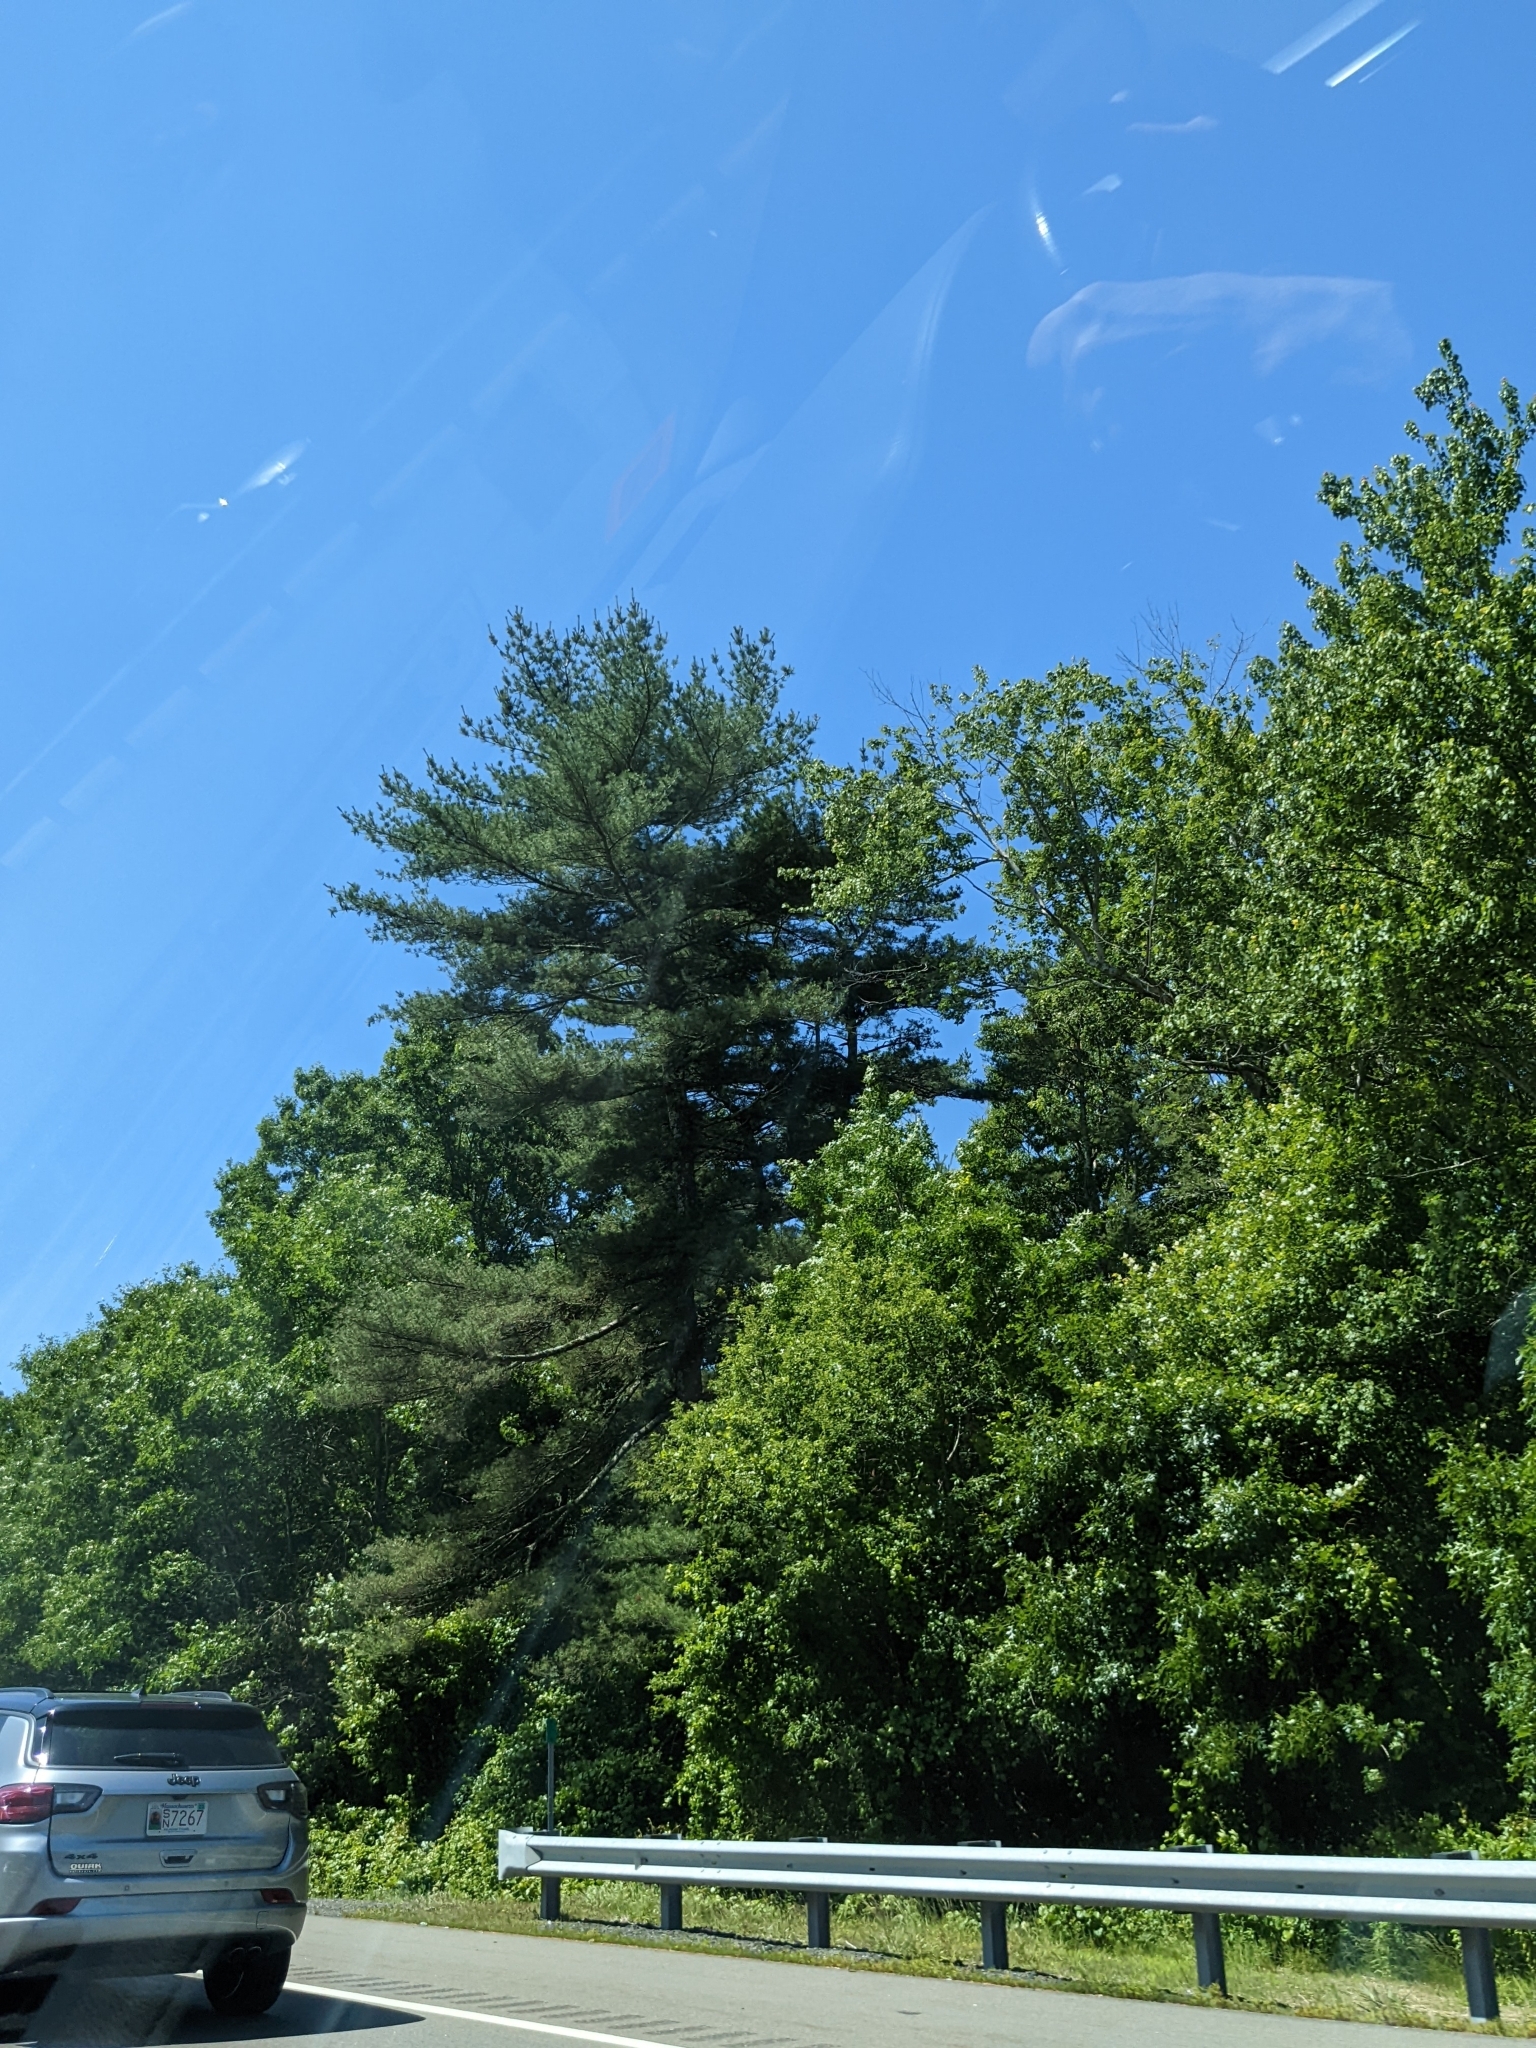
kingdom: Plantae
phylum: Tracheophyta
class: Pinopsida
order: Pinales
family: Pinaceae
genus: Pinus
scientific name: Pinus strobus
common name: Weymouth pine
